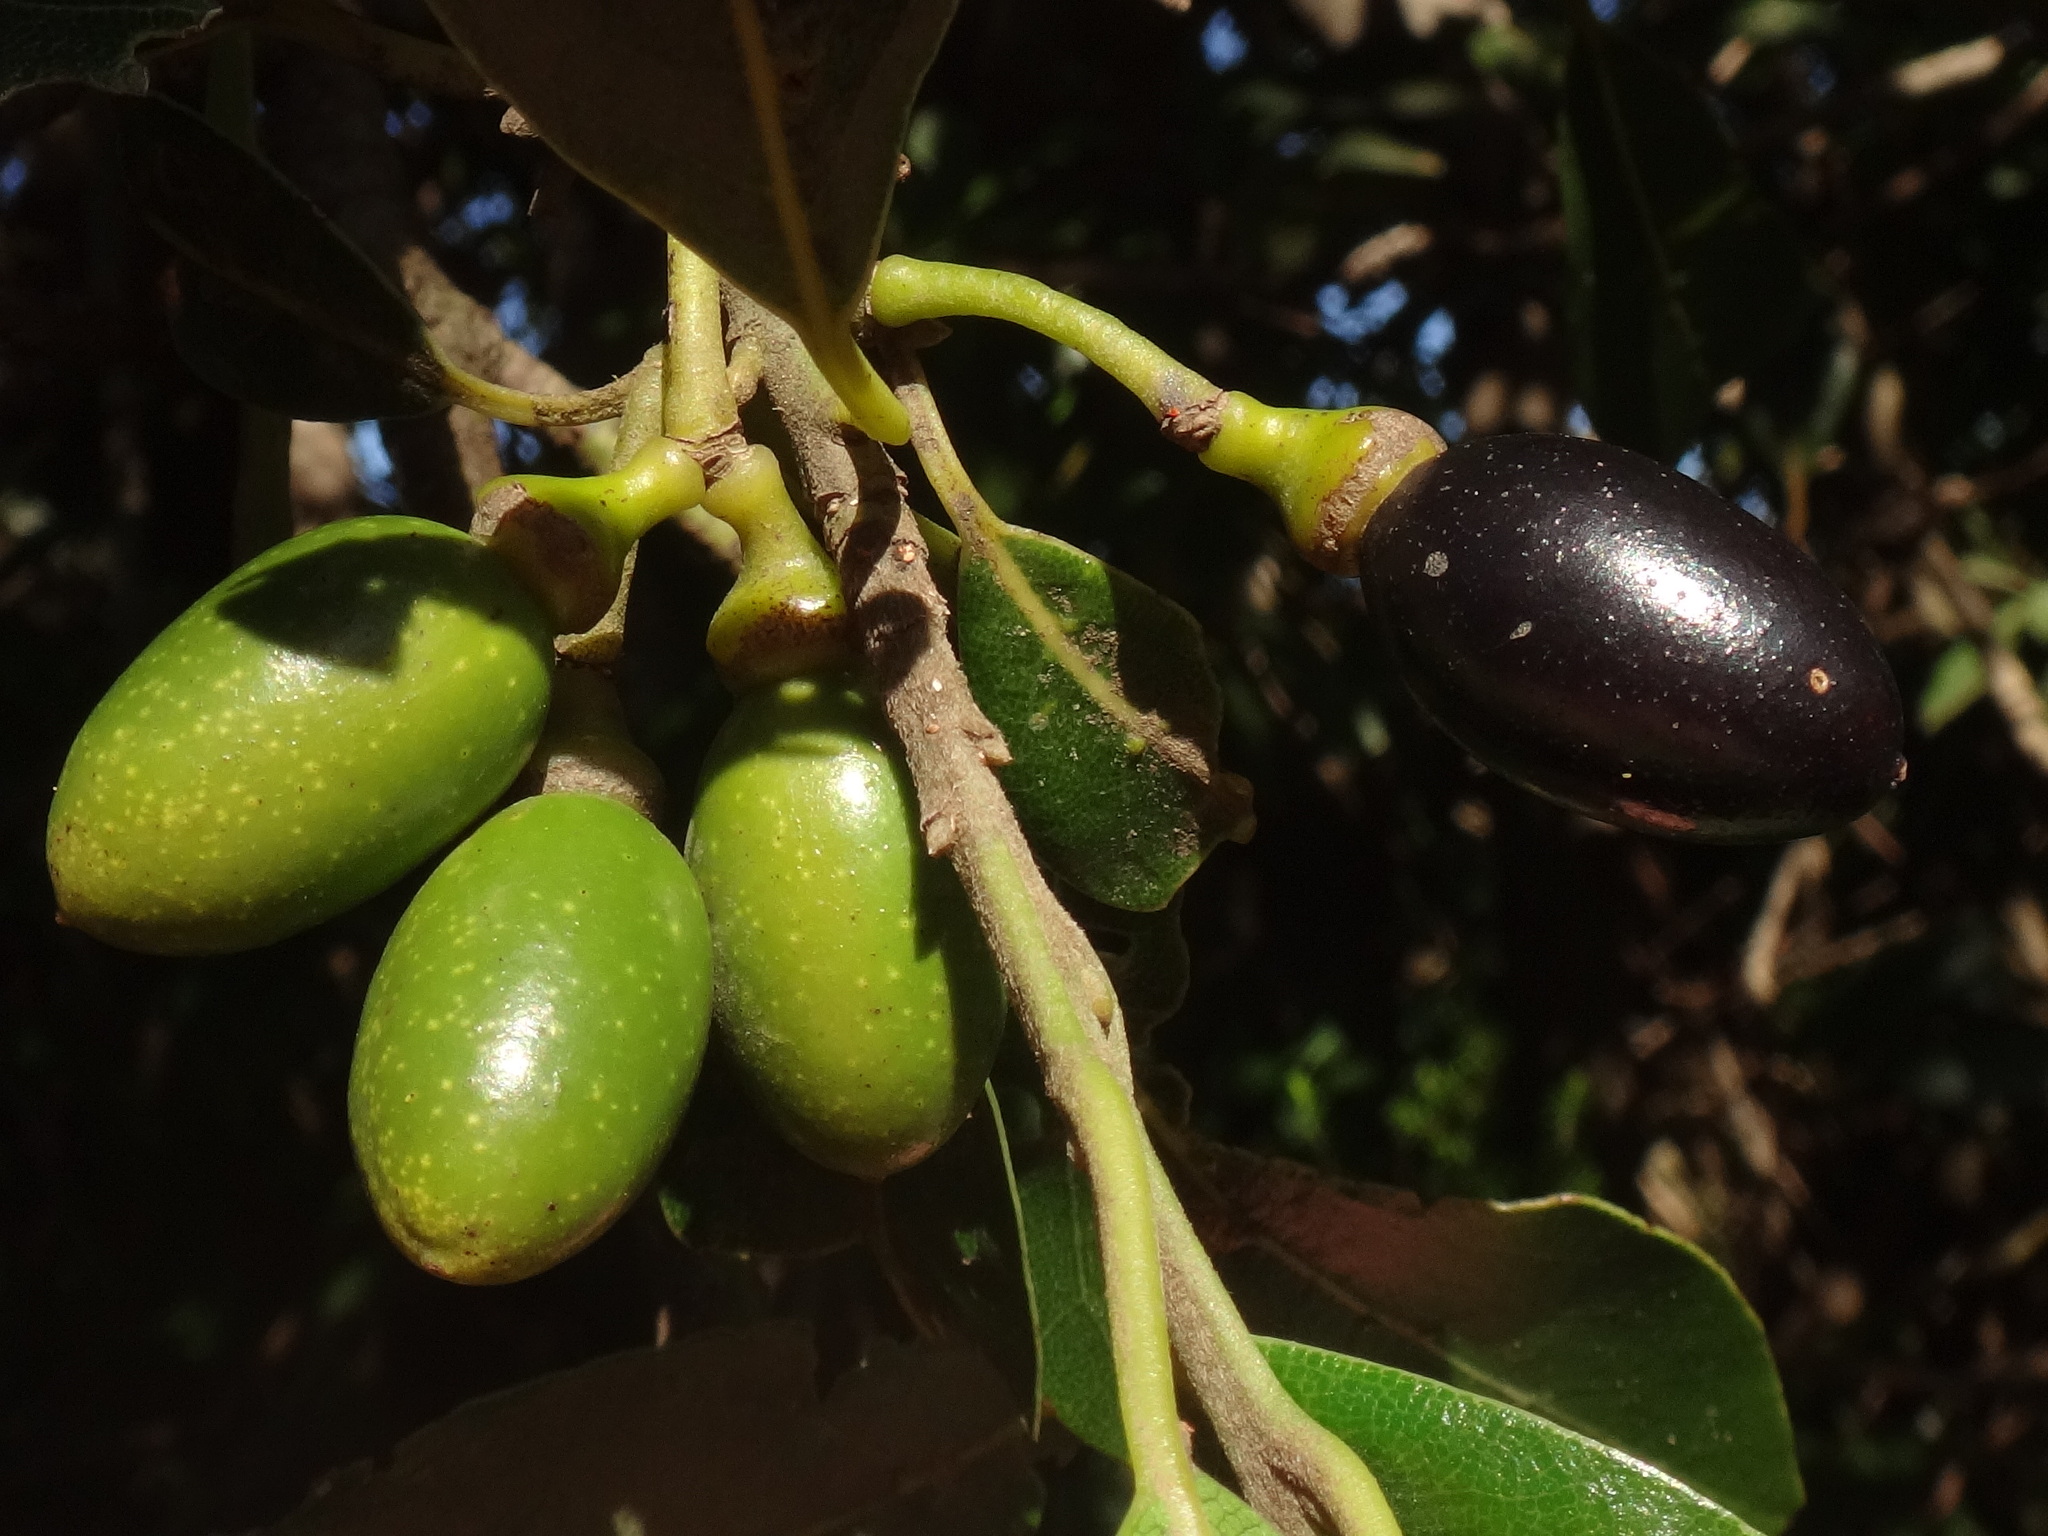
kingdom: Plantae
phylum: Tracheophyta
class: Magnoliopsida
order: Laurales
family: Lauraceae
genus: Laurus
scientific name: Laurus novocanariensis
